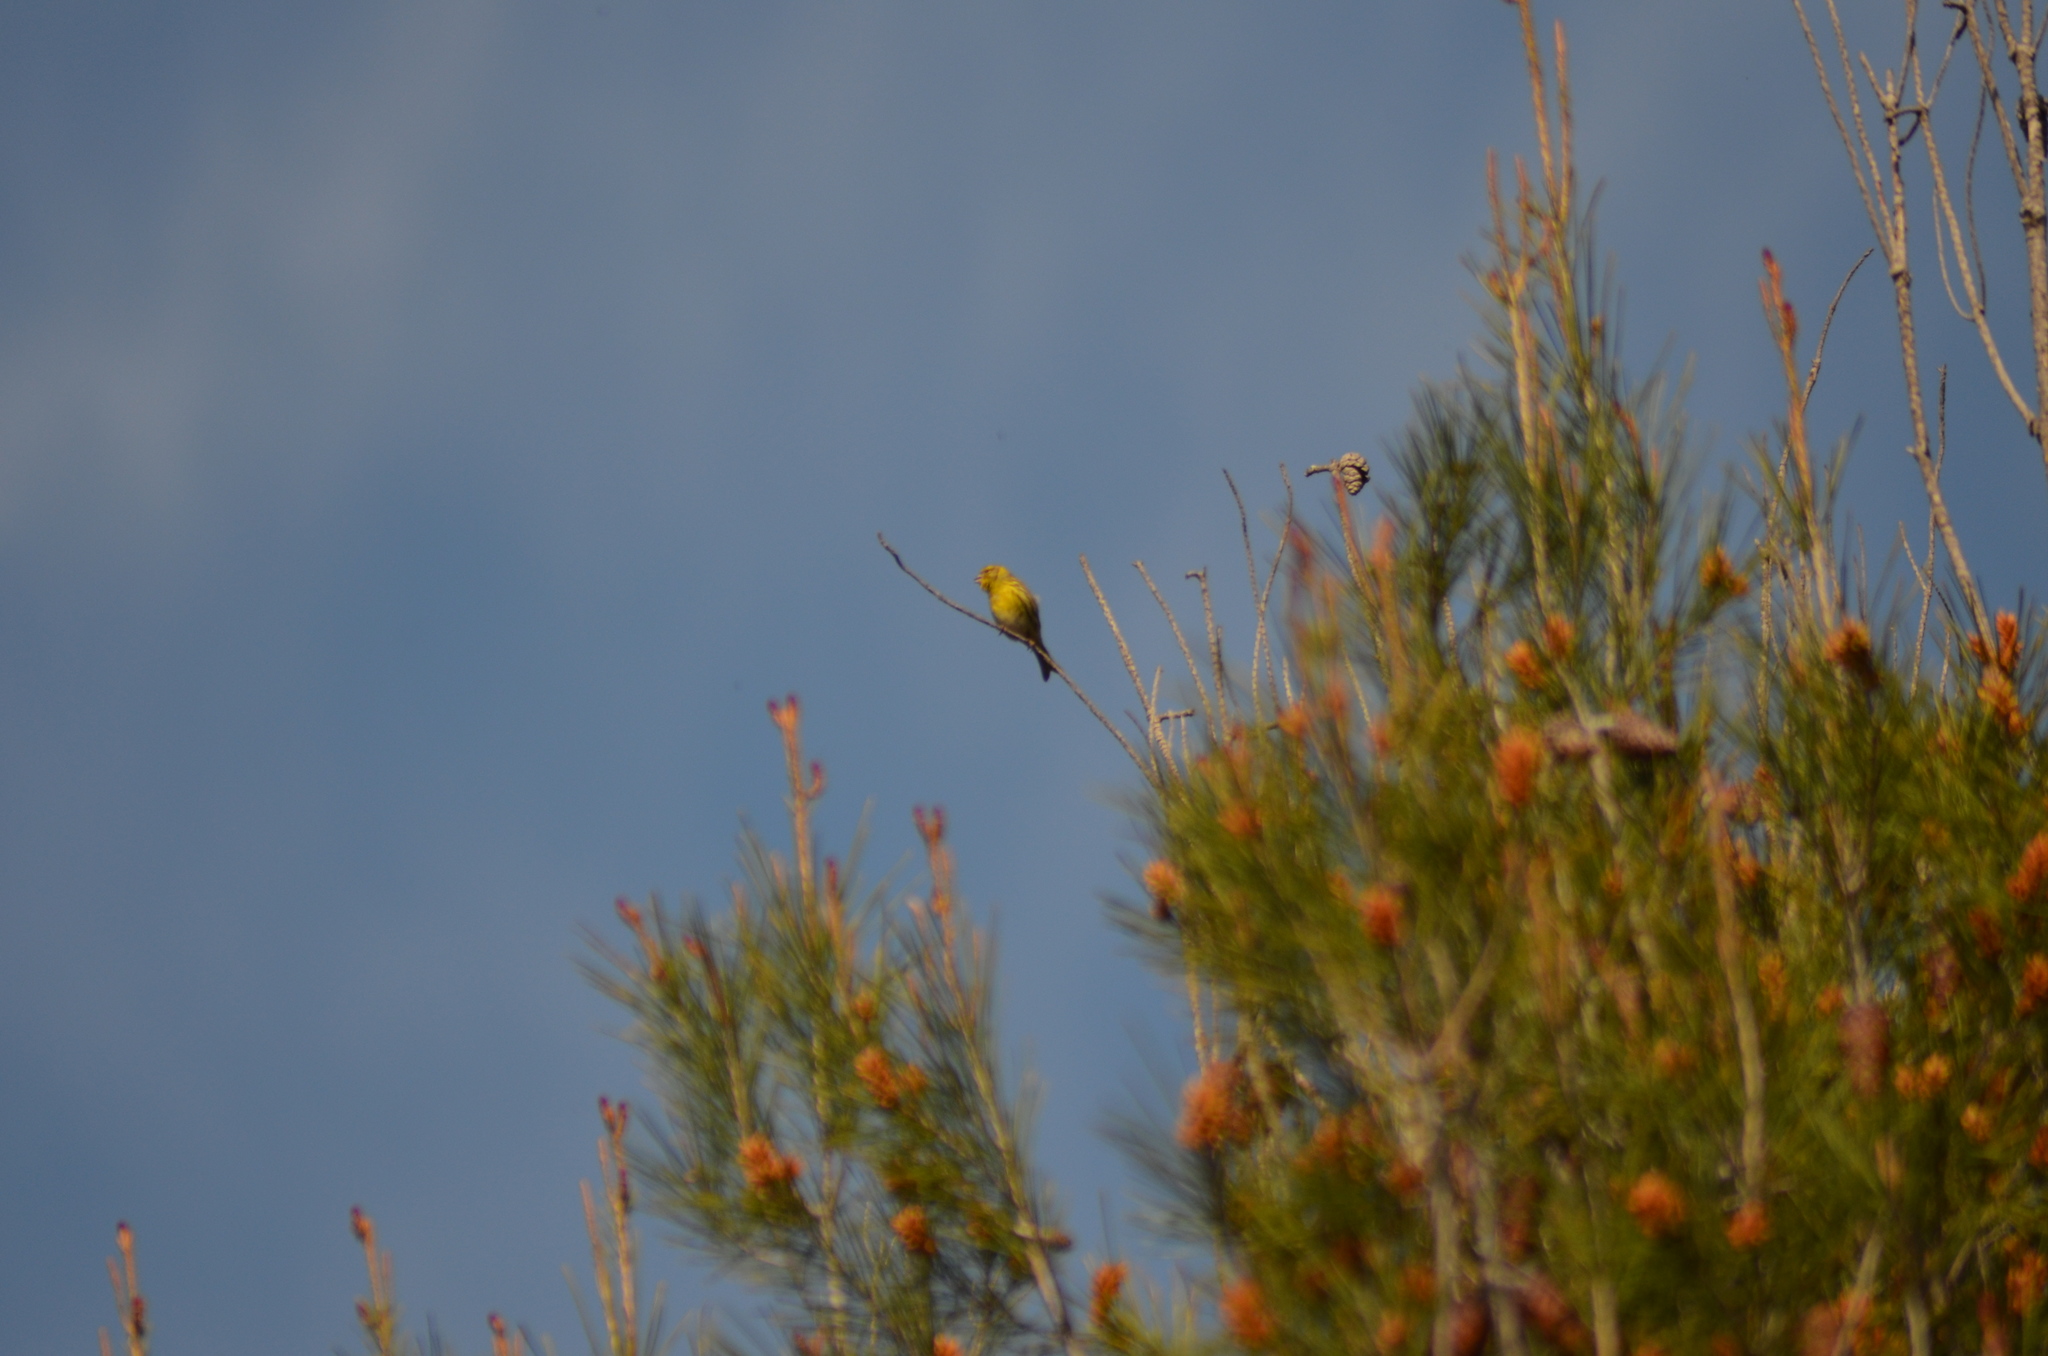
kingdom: Animalia
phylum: Chordata
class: Aves
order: Passeriformes
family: Fringillidae
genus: Serinus
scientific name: Serinus serinus
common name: European serin
